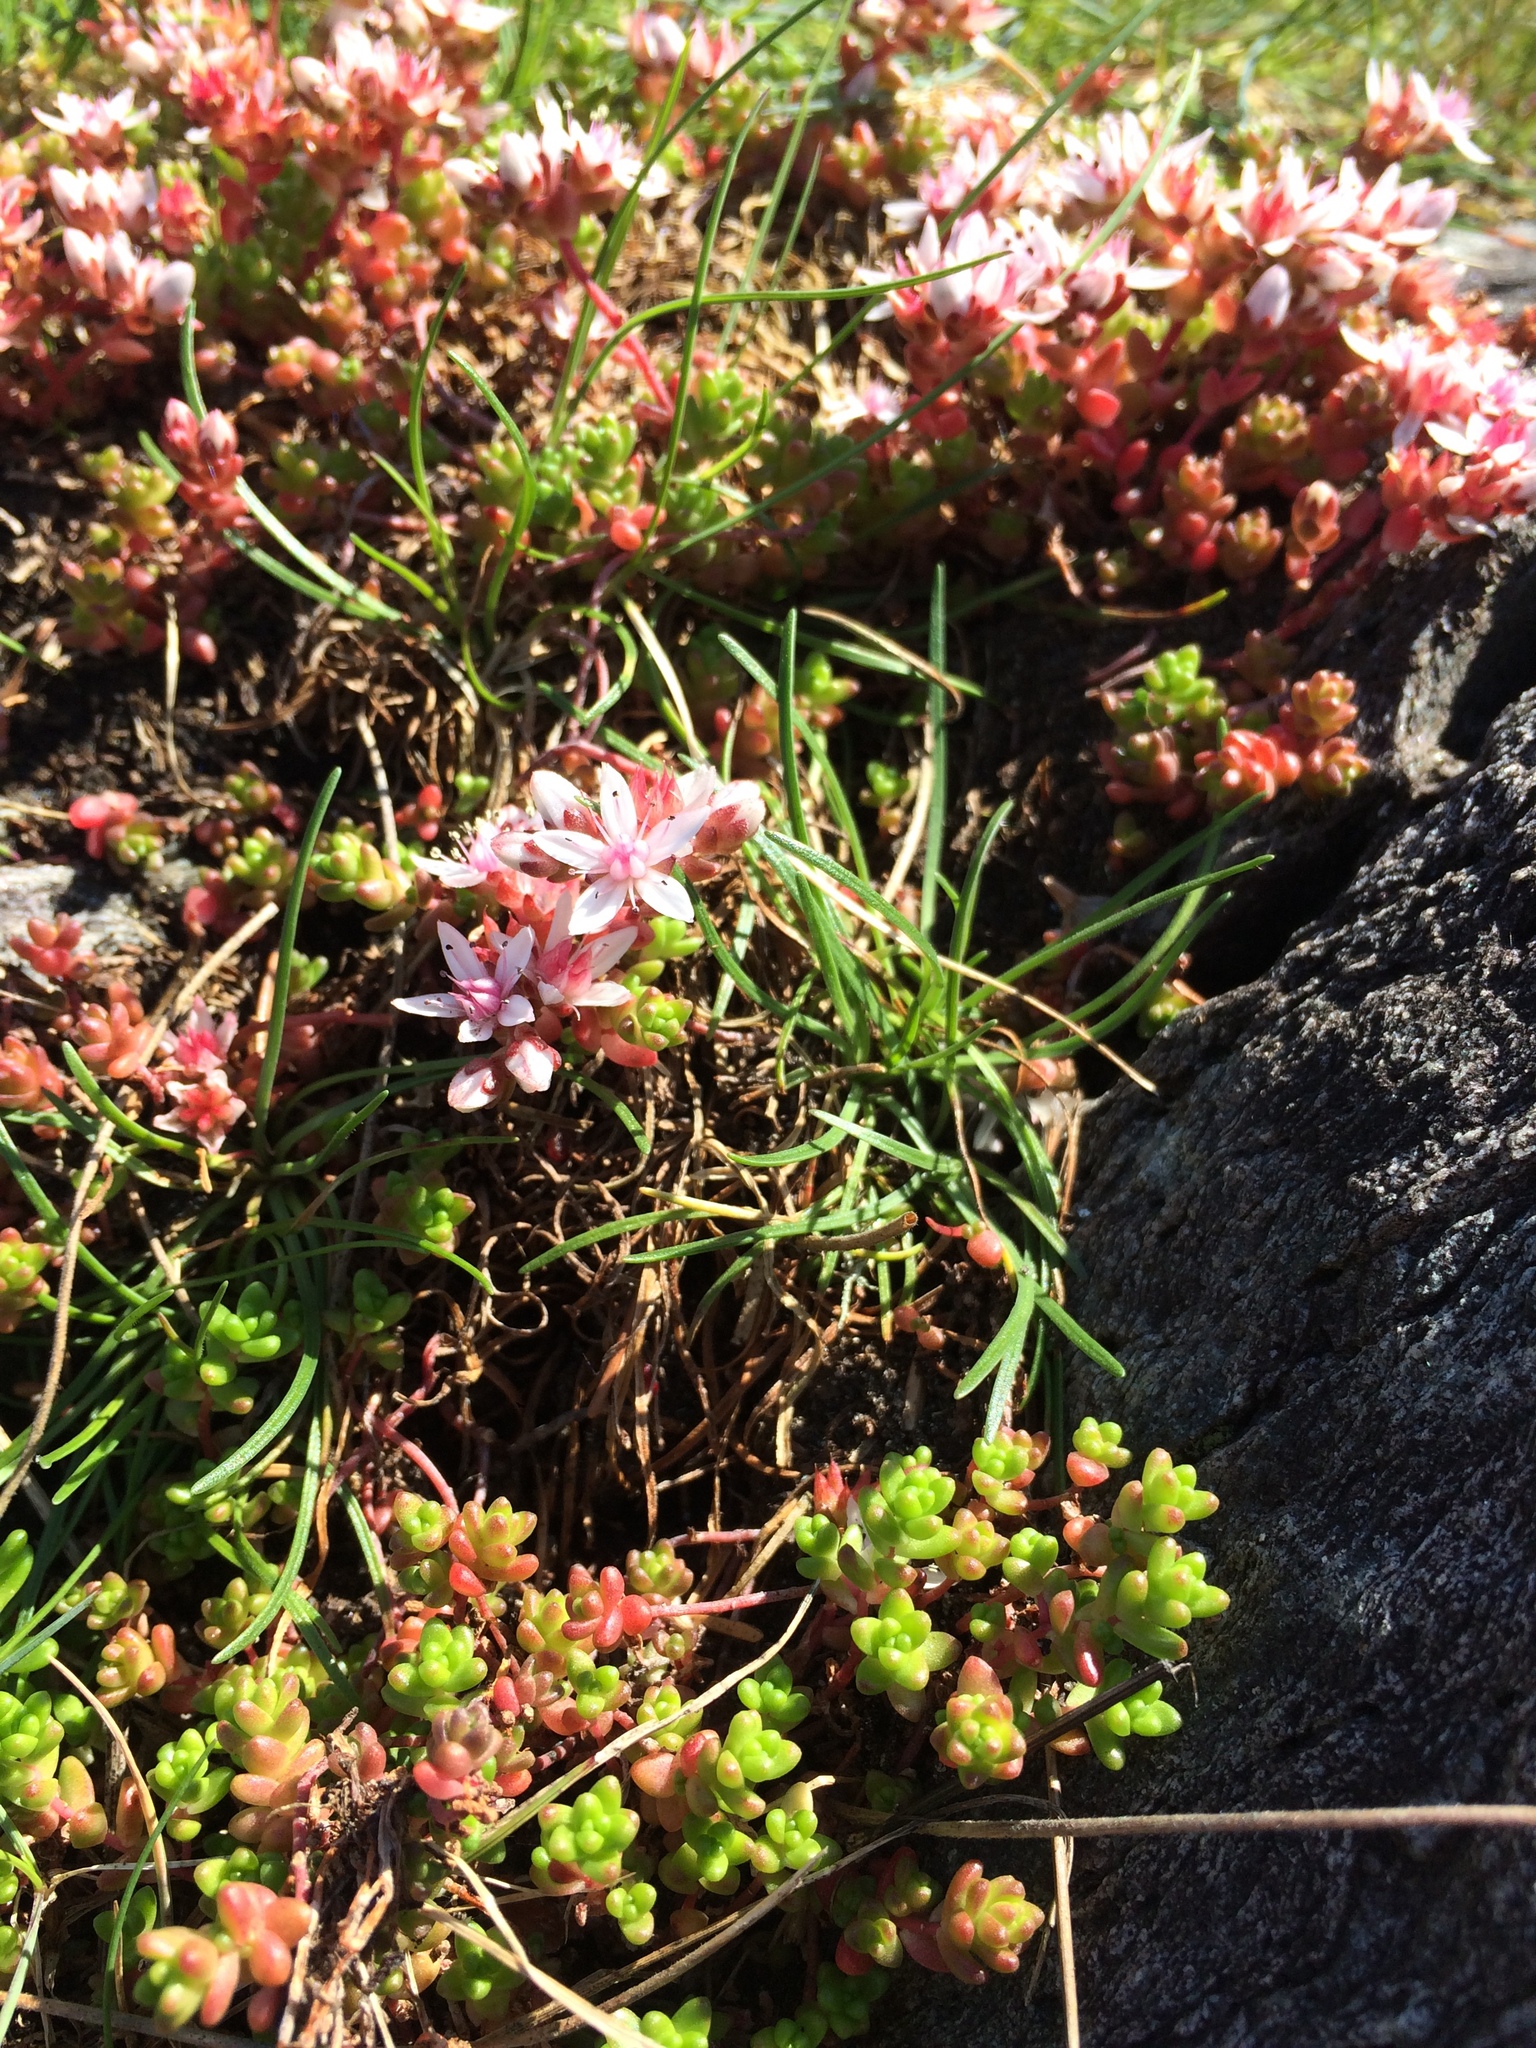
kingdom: Plantae
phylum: Tracheophyta
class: Magnoliopsida
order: Saxifragales
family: Crassulaceae
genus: Sedum
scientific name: Sedum anglicum
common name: English stonecrop
